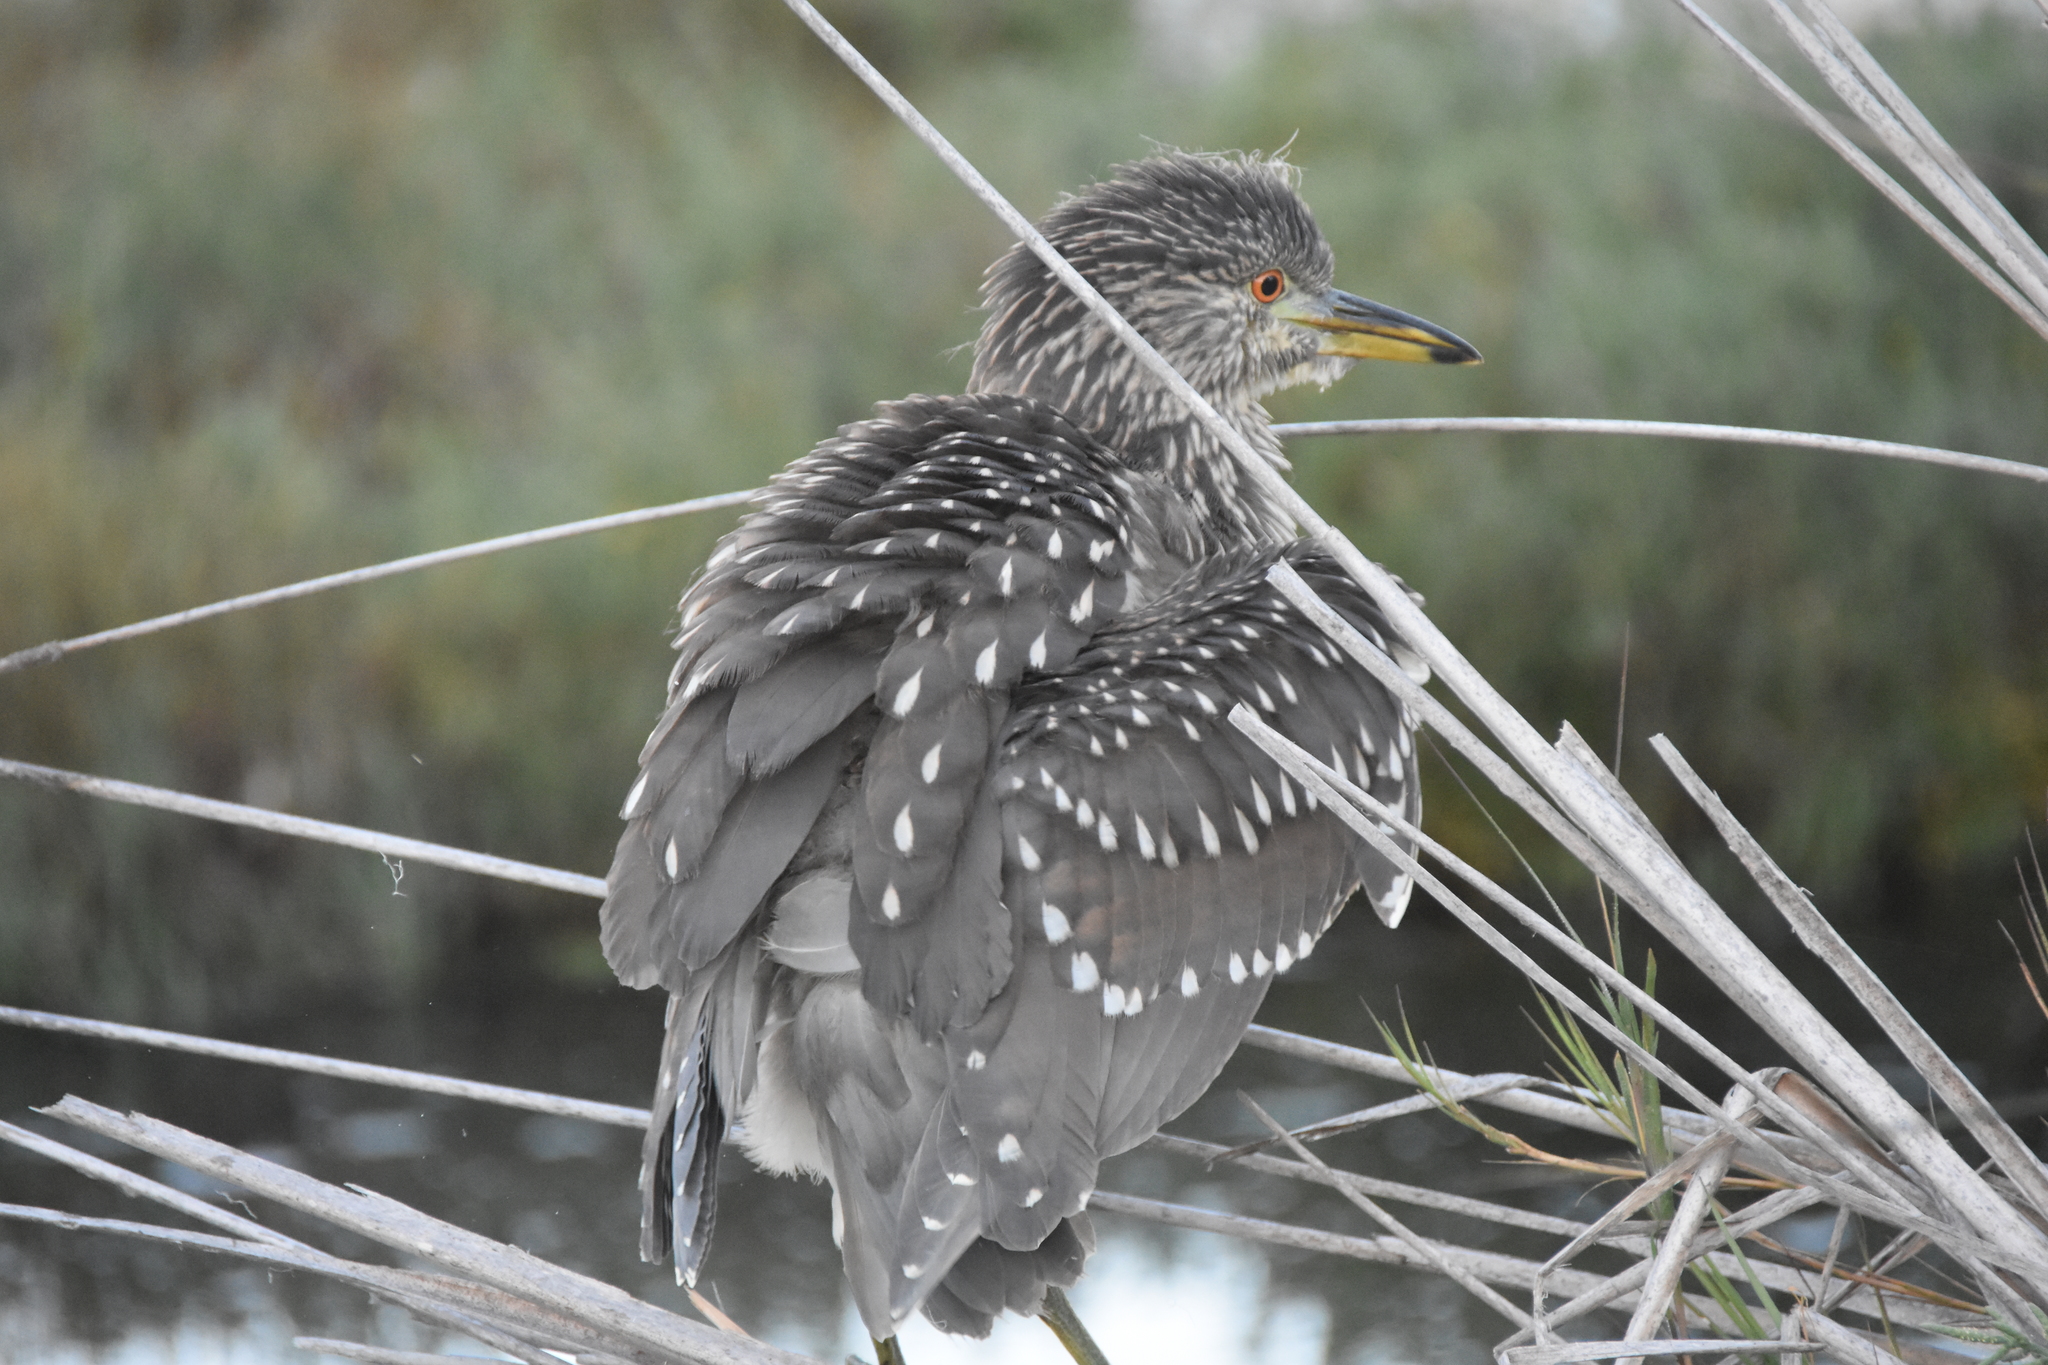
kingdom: Animalia
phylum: Chordata
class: Aves
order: Pelecaniformes
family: Ardeidae
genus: Nycticorax
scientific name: Nycticorax nycticorax
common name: Black-crowned night heron
